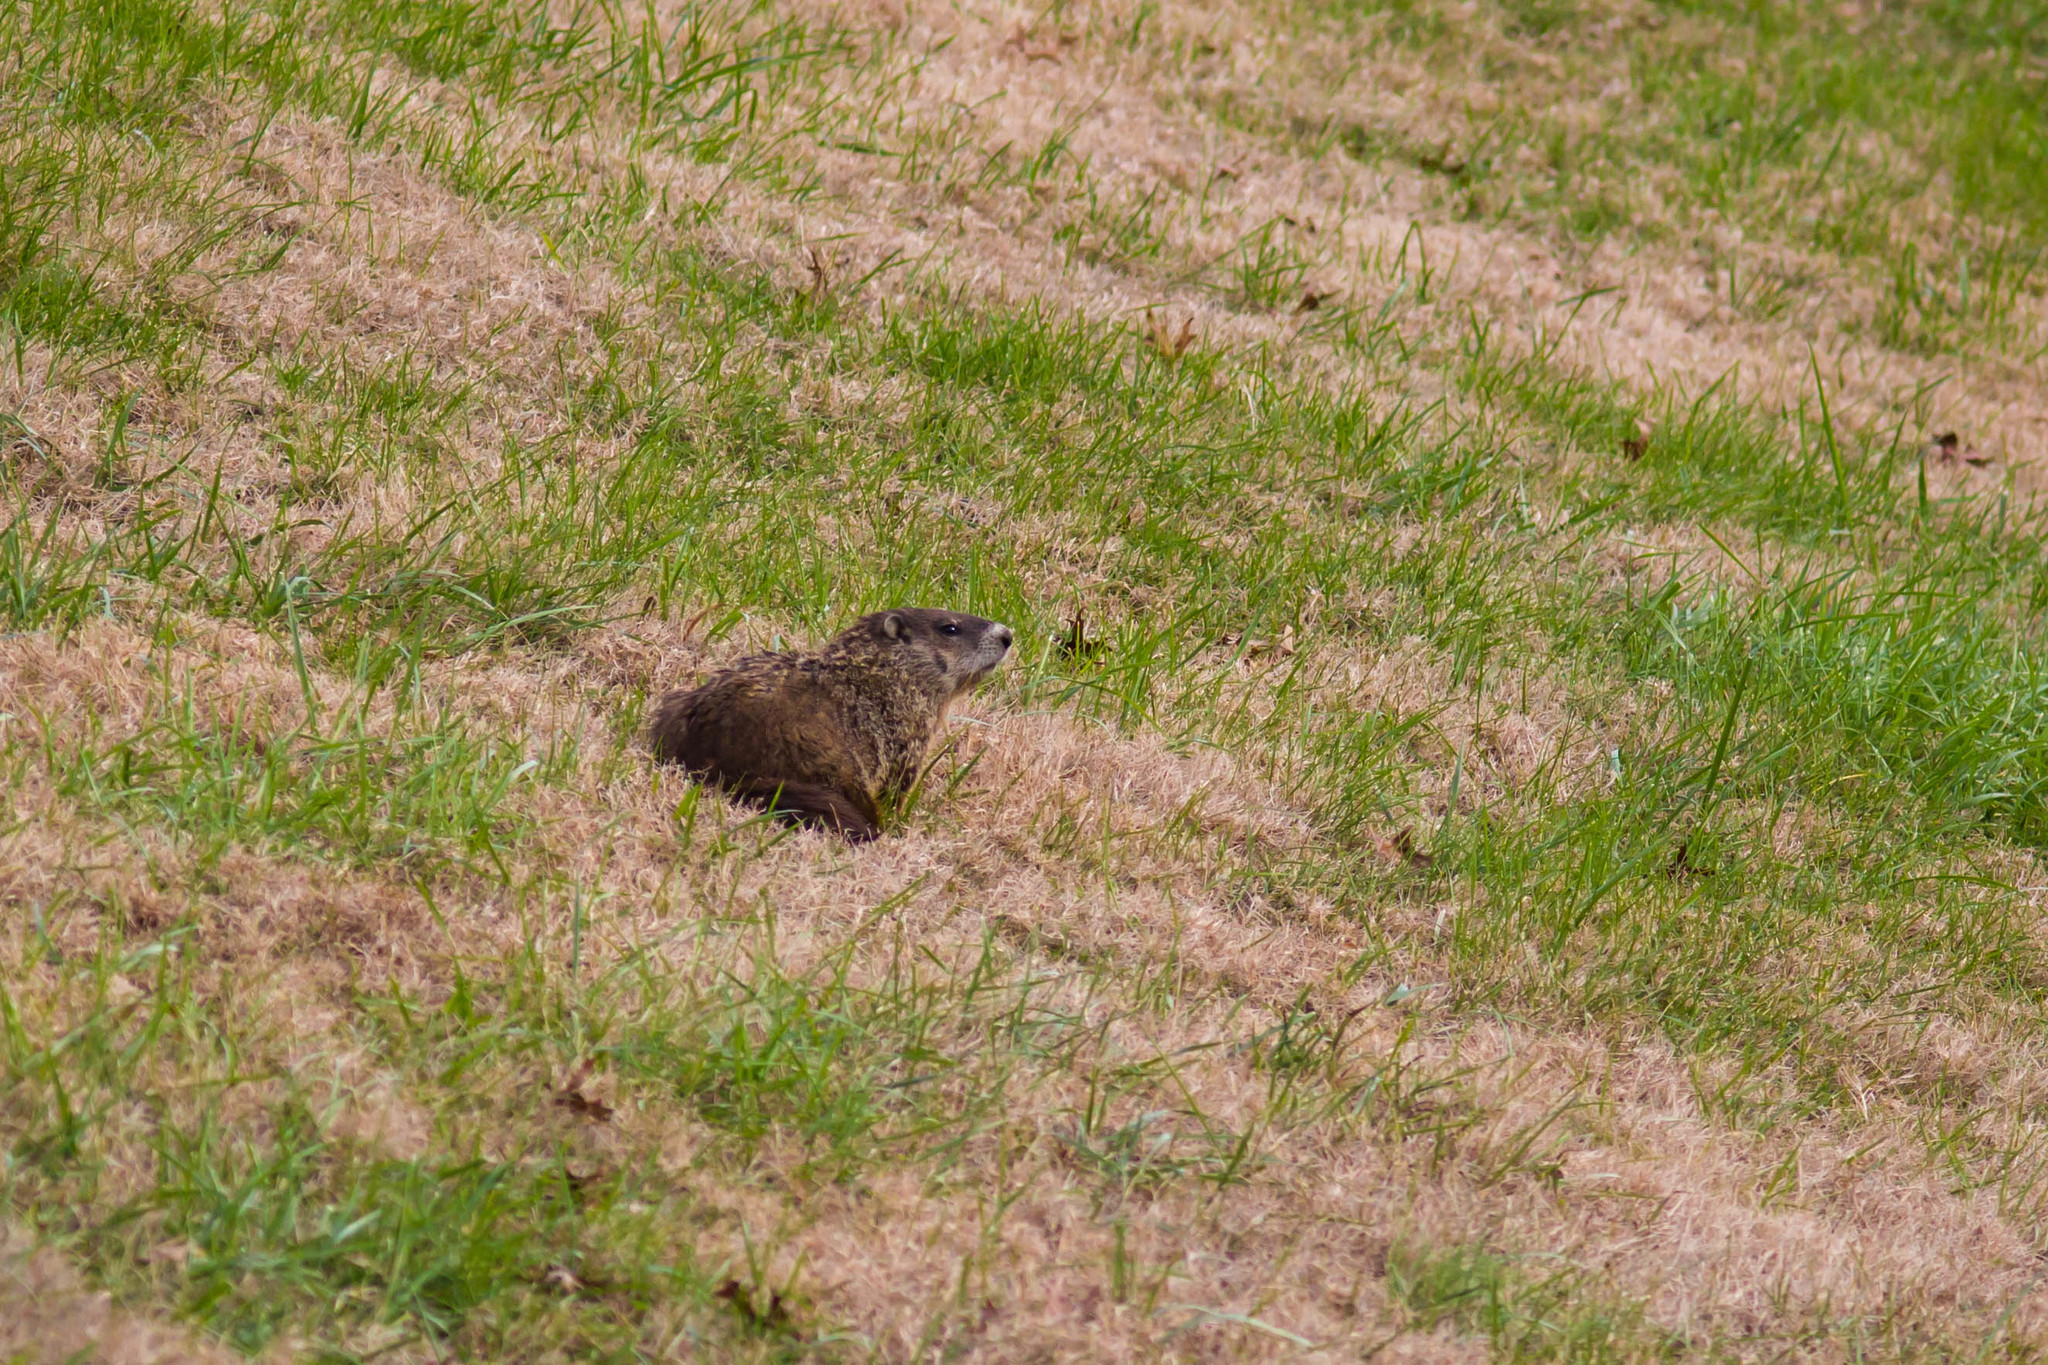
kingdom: Animalia
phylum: Chordata
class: Mammalia
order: Rodentia
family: Sciuridae
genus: Marmota
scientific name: Marmota monax
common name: Groundhog
